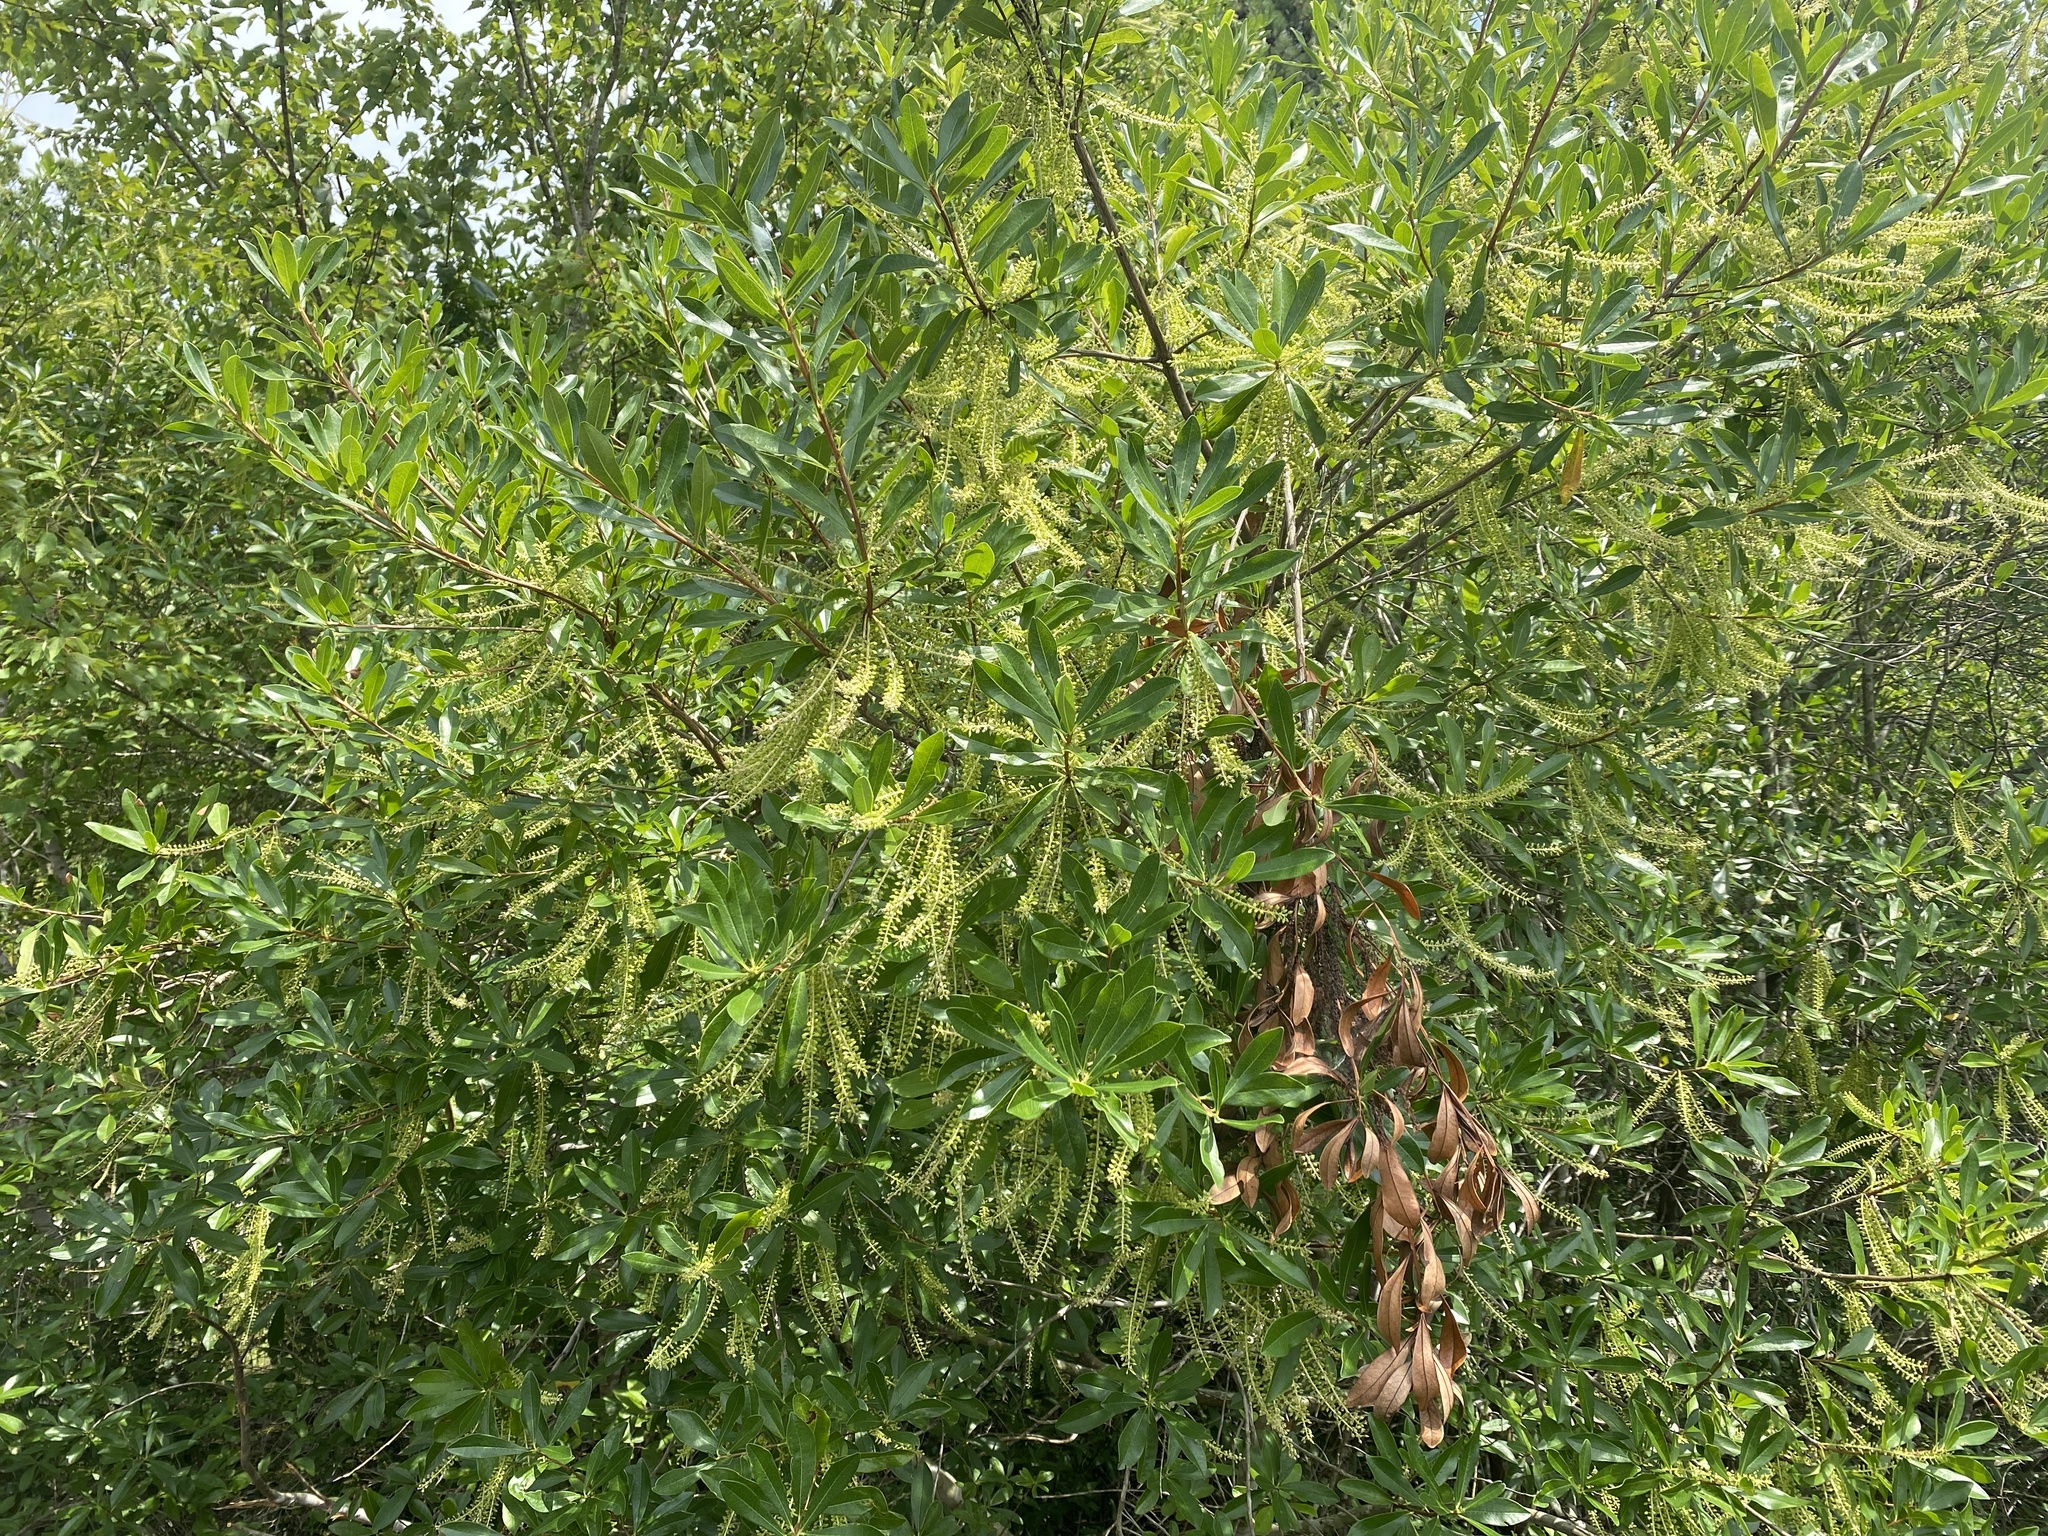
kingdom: Plantae
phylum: Tracheophyta
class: Magnoliopsida
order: Ericales
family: Cyrillaceae
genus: Cyrilla
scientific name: Cyrilla racemiflora
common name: Black titi
